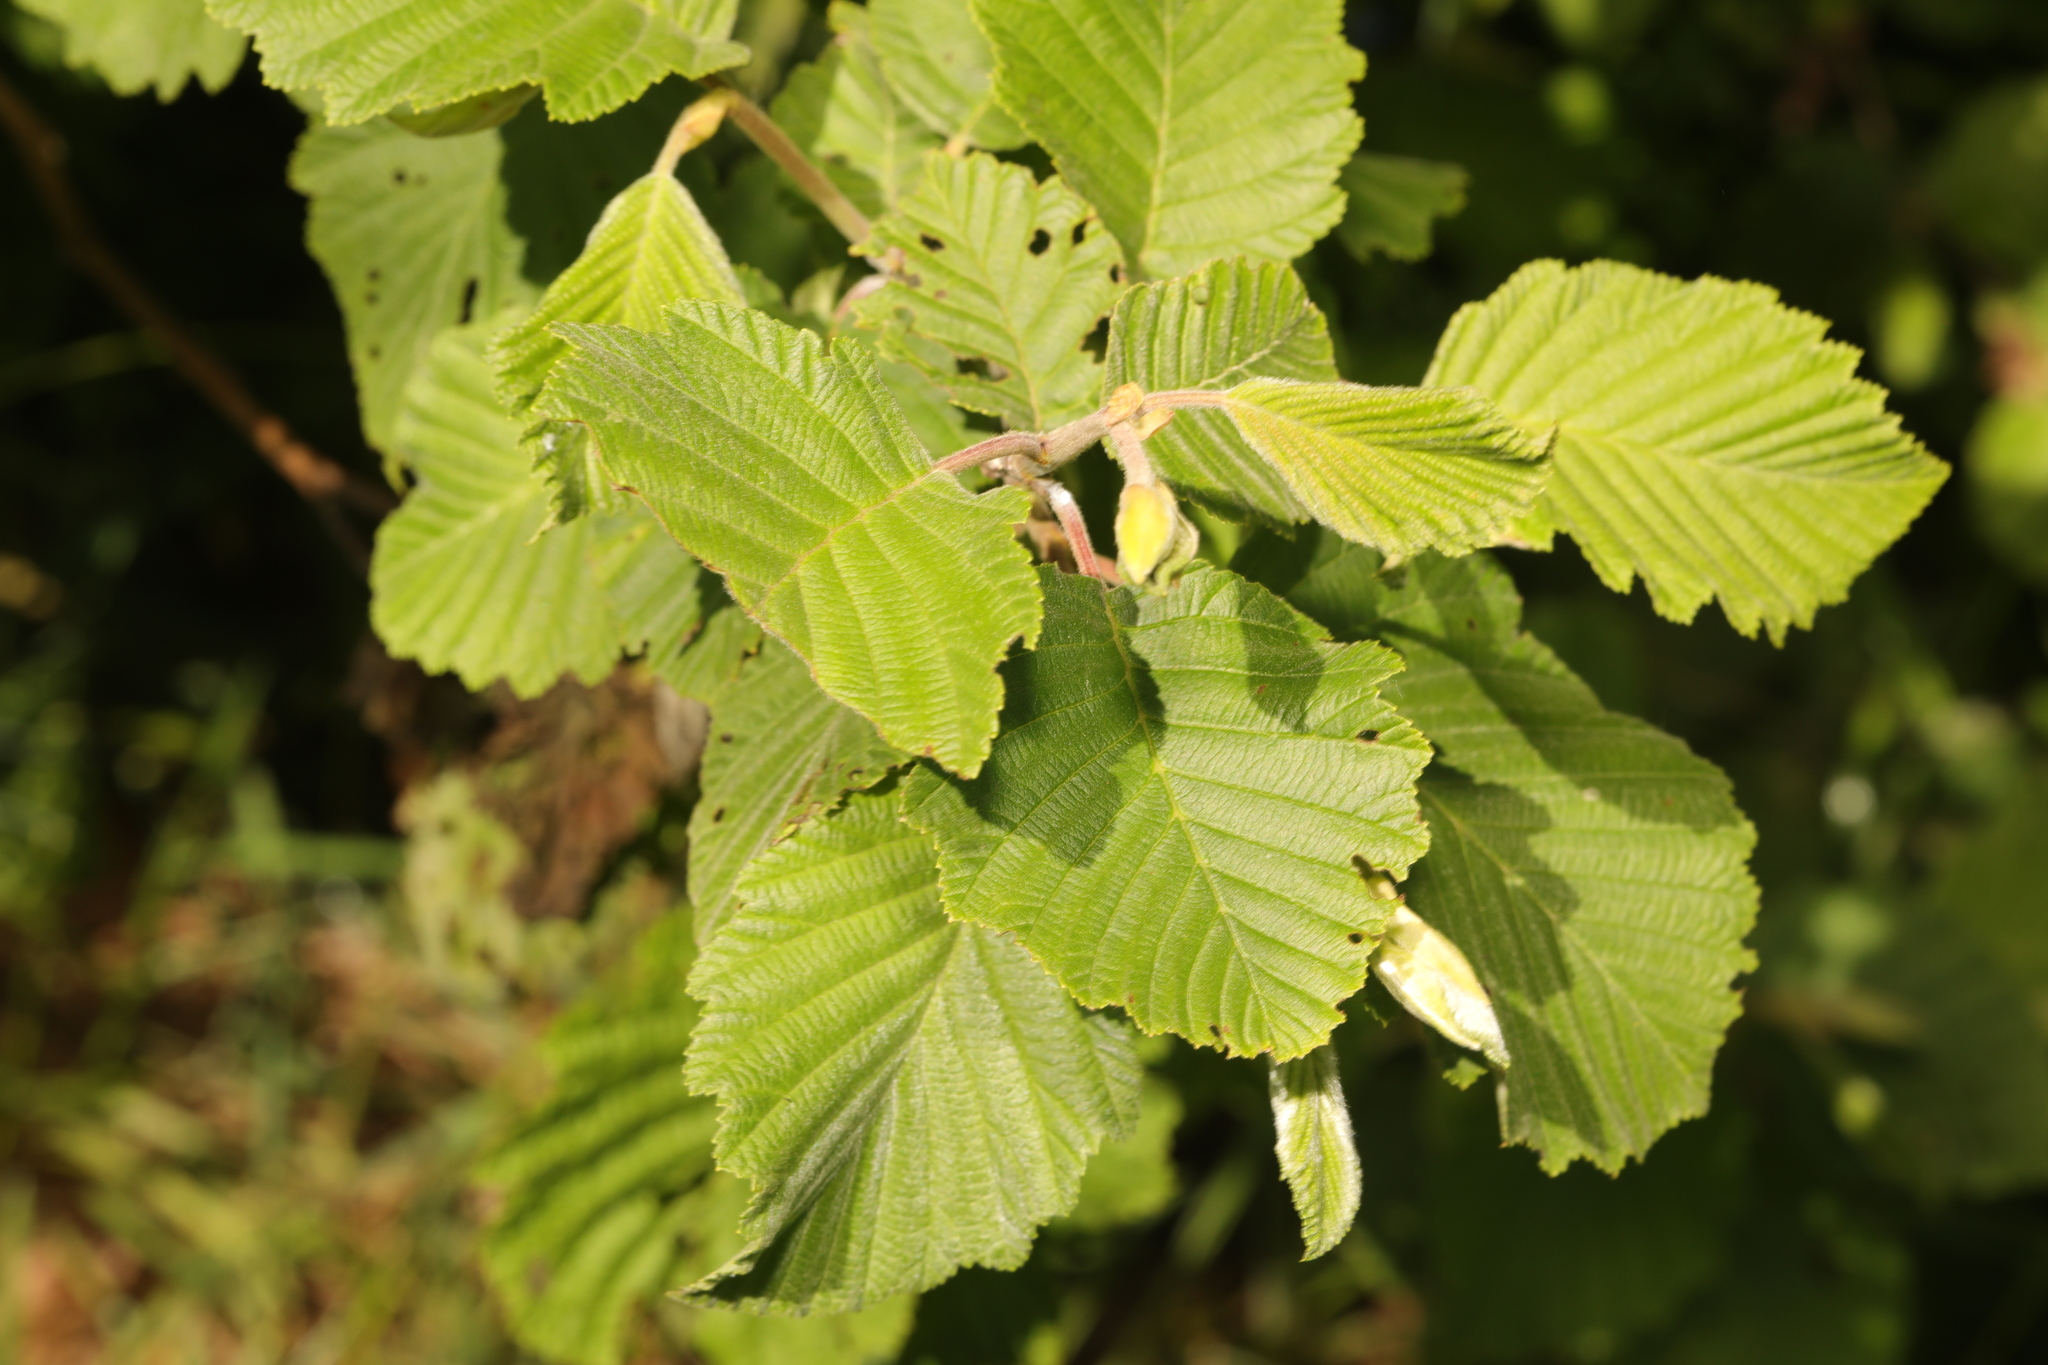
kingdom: Plantae
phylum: Tracheophyta
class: Magnoliopsida
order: Fagales
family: Betulaceae
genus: Alnus
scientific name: Alnus incana
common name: Grey alder
